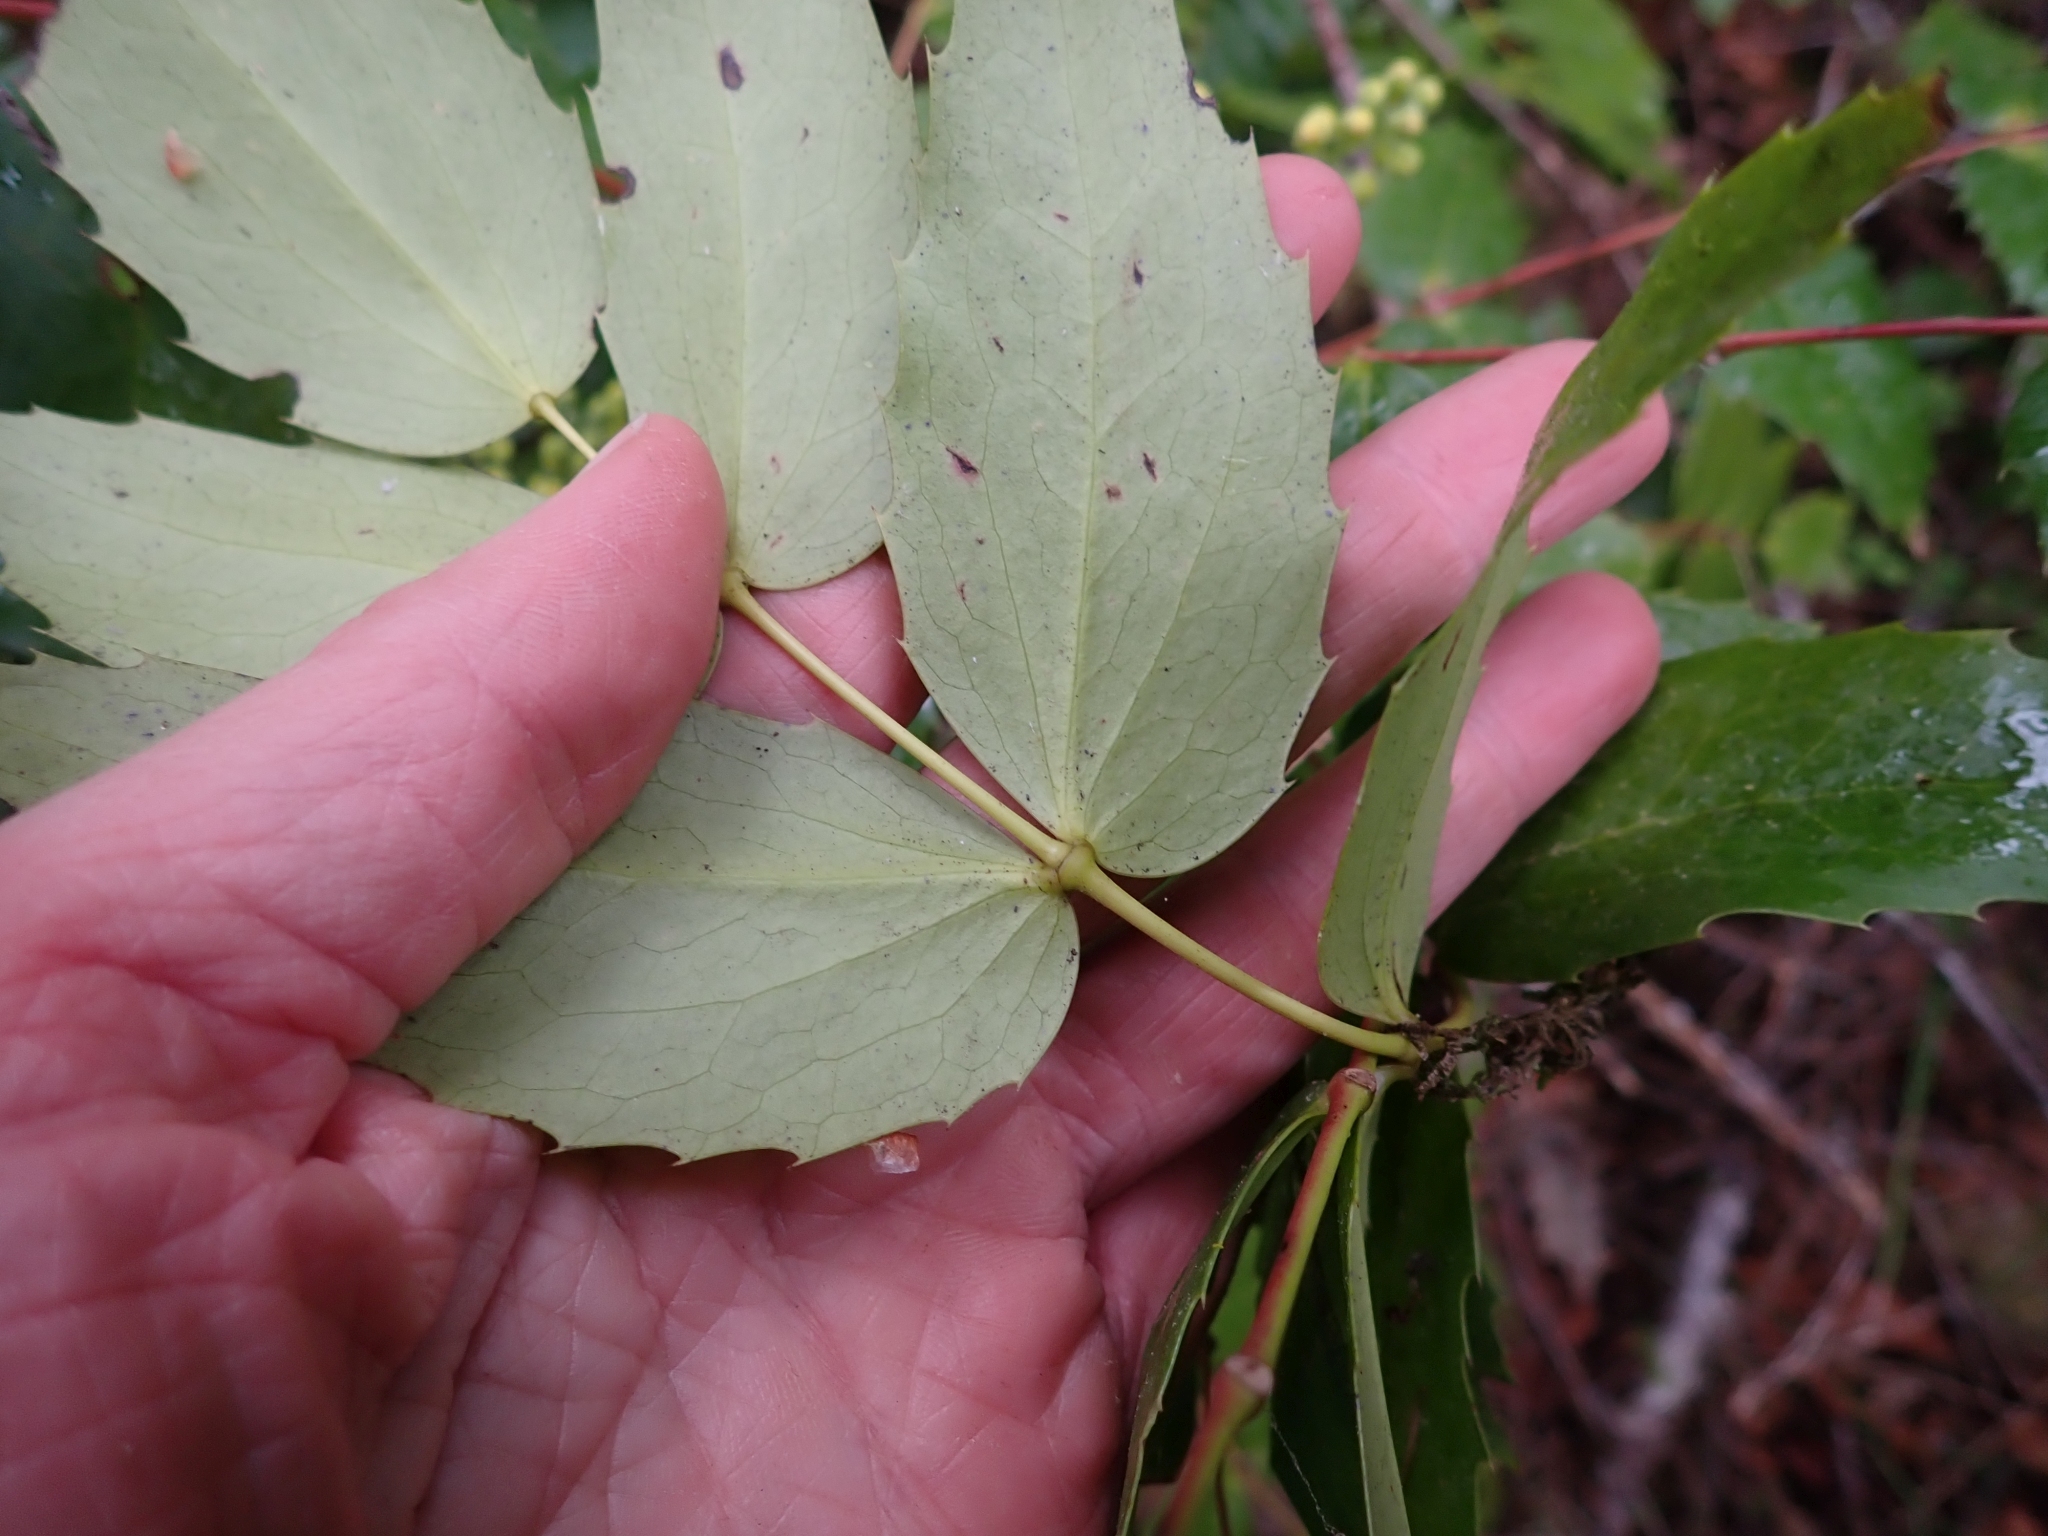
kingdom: Plantae
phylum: Tracheophyta
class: Magnoliopsida
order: Ranunculales
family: Berberidaceae
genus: Mahonia
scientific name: Mahonia nervosa
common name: Cascade oregon-grape
